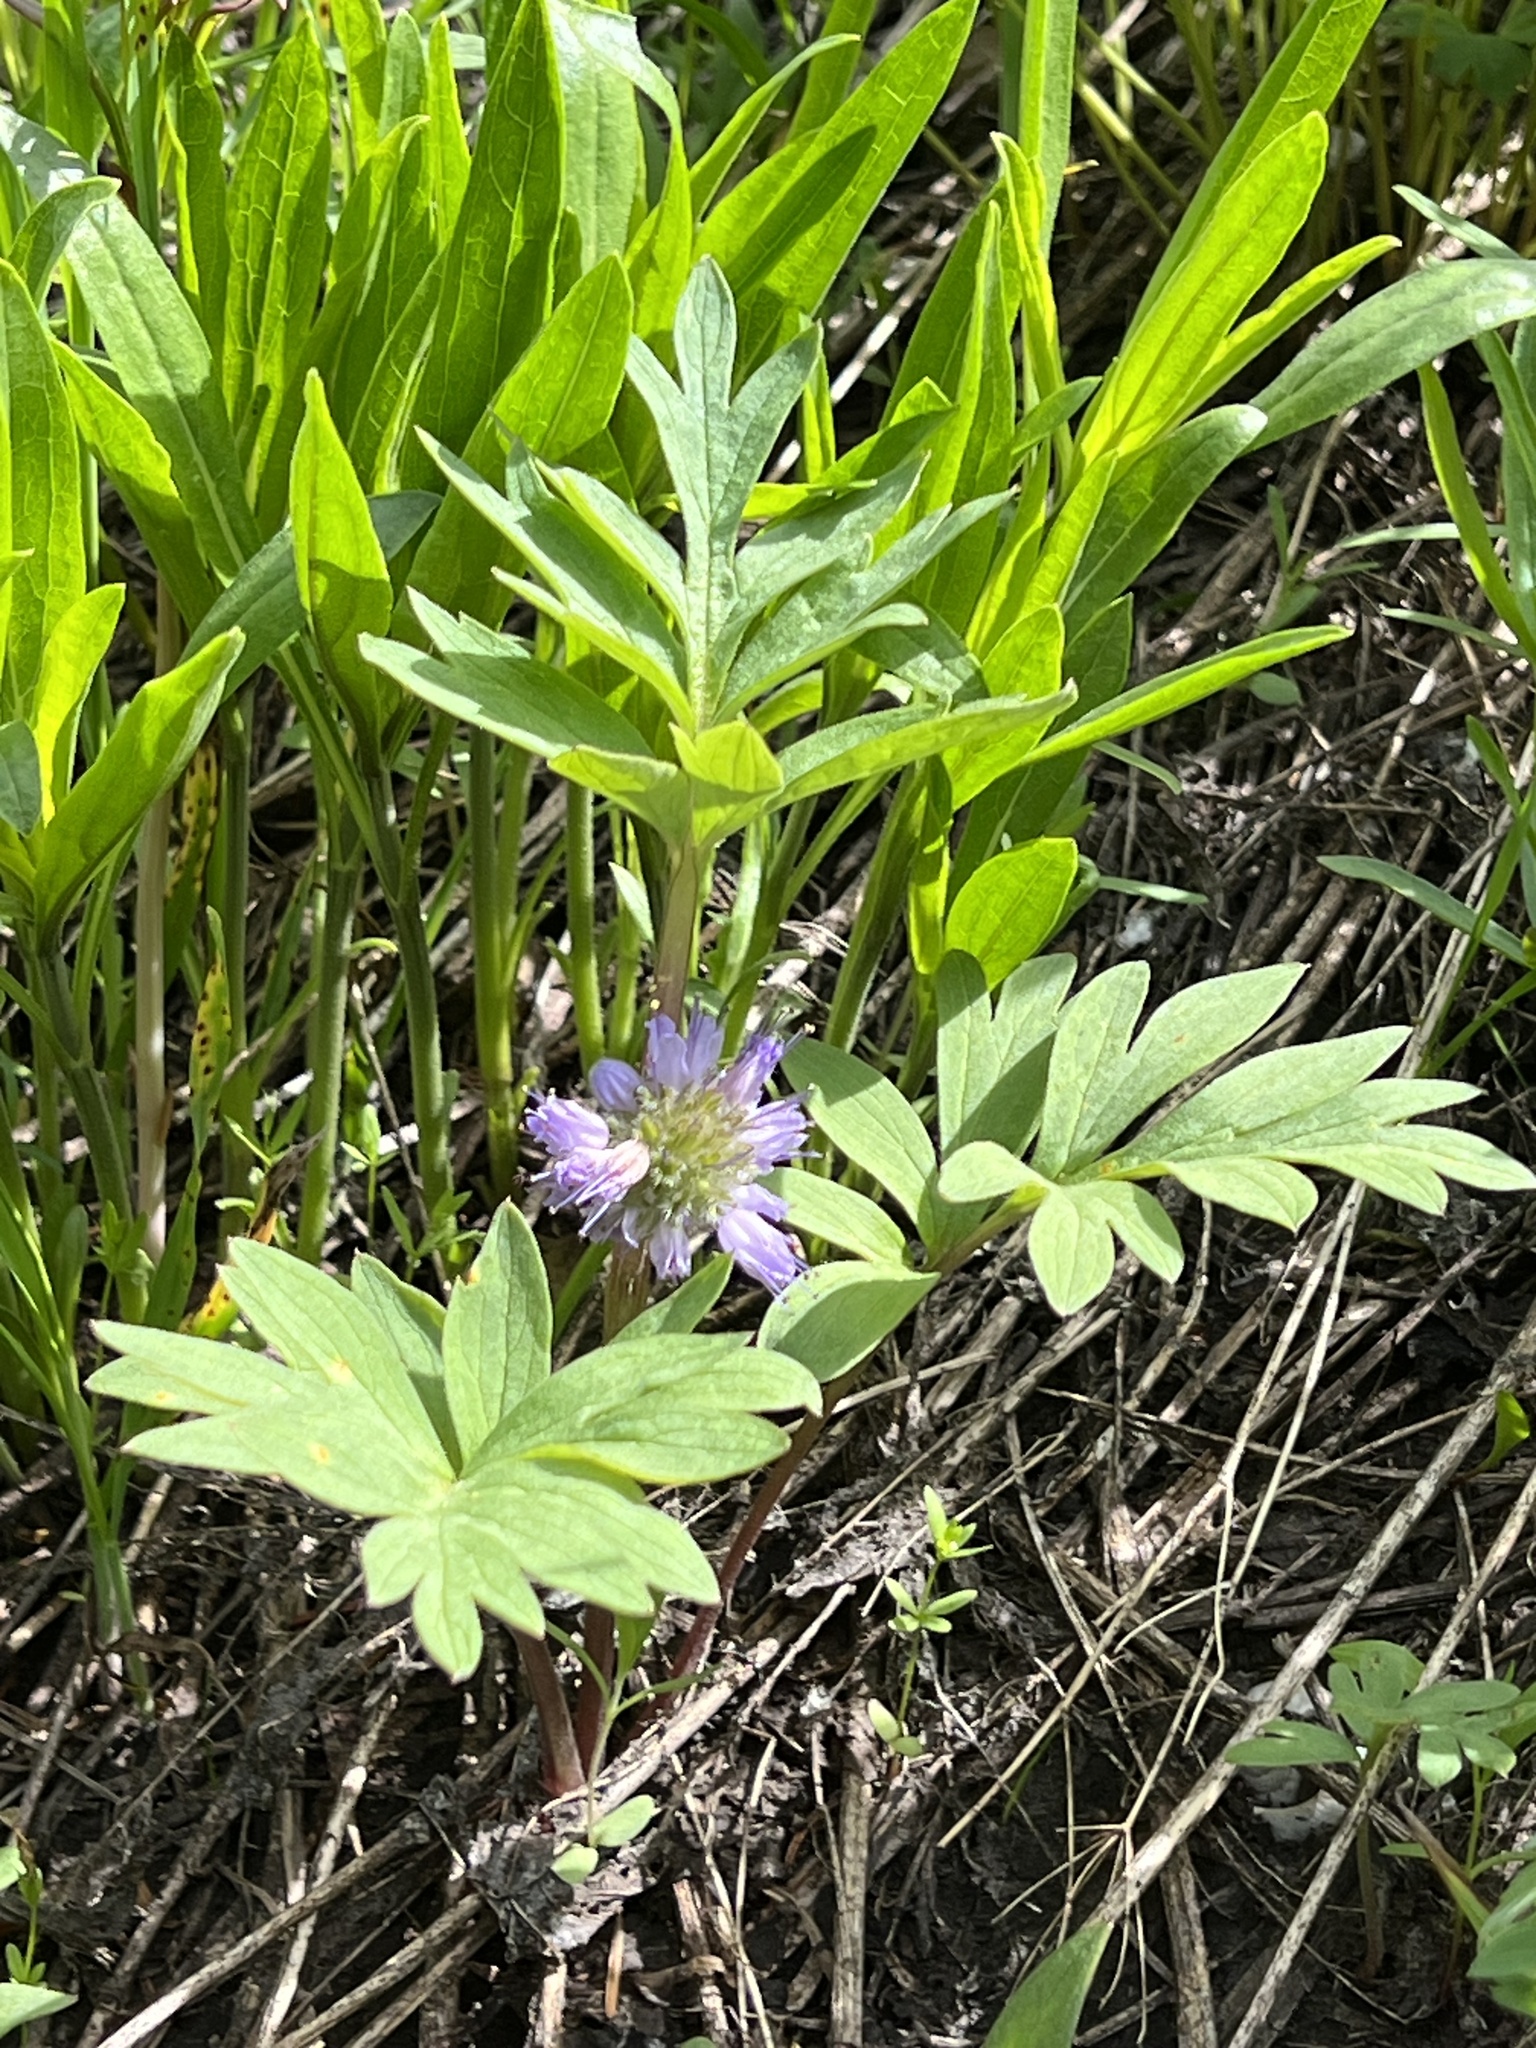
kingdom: Plantae
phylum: Tracheophyta
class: Magnoliopsida
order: Boraginales
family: Hydrophyllaceae
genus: Hydrophyllum
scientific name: Hydrophyllum capitatum
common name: Woollen-breeches
